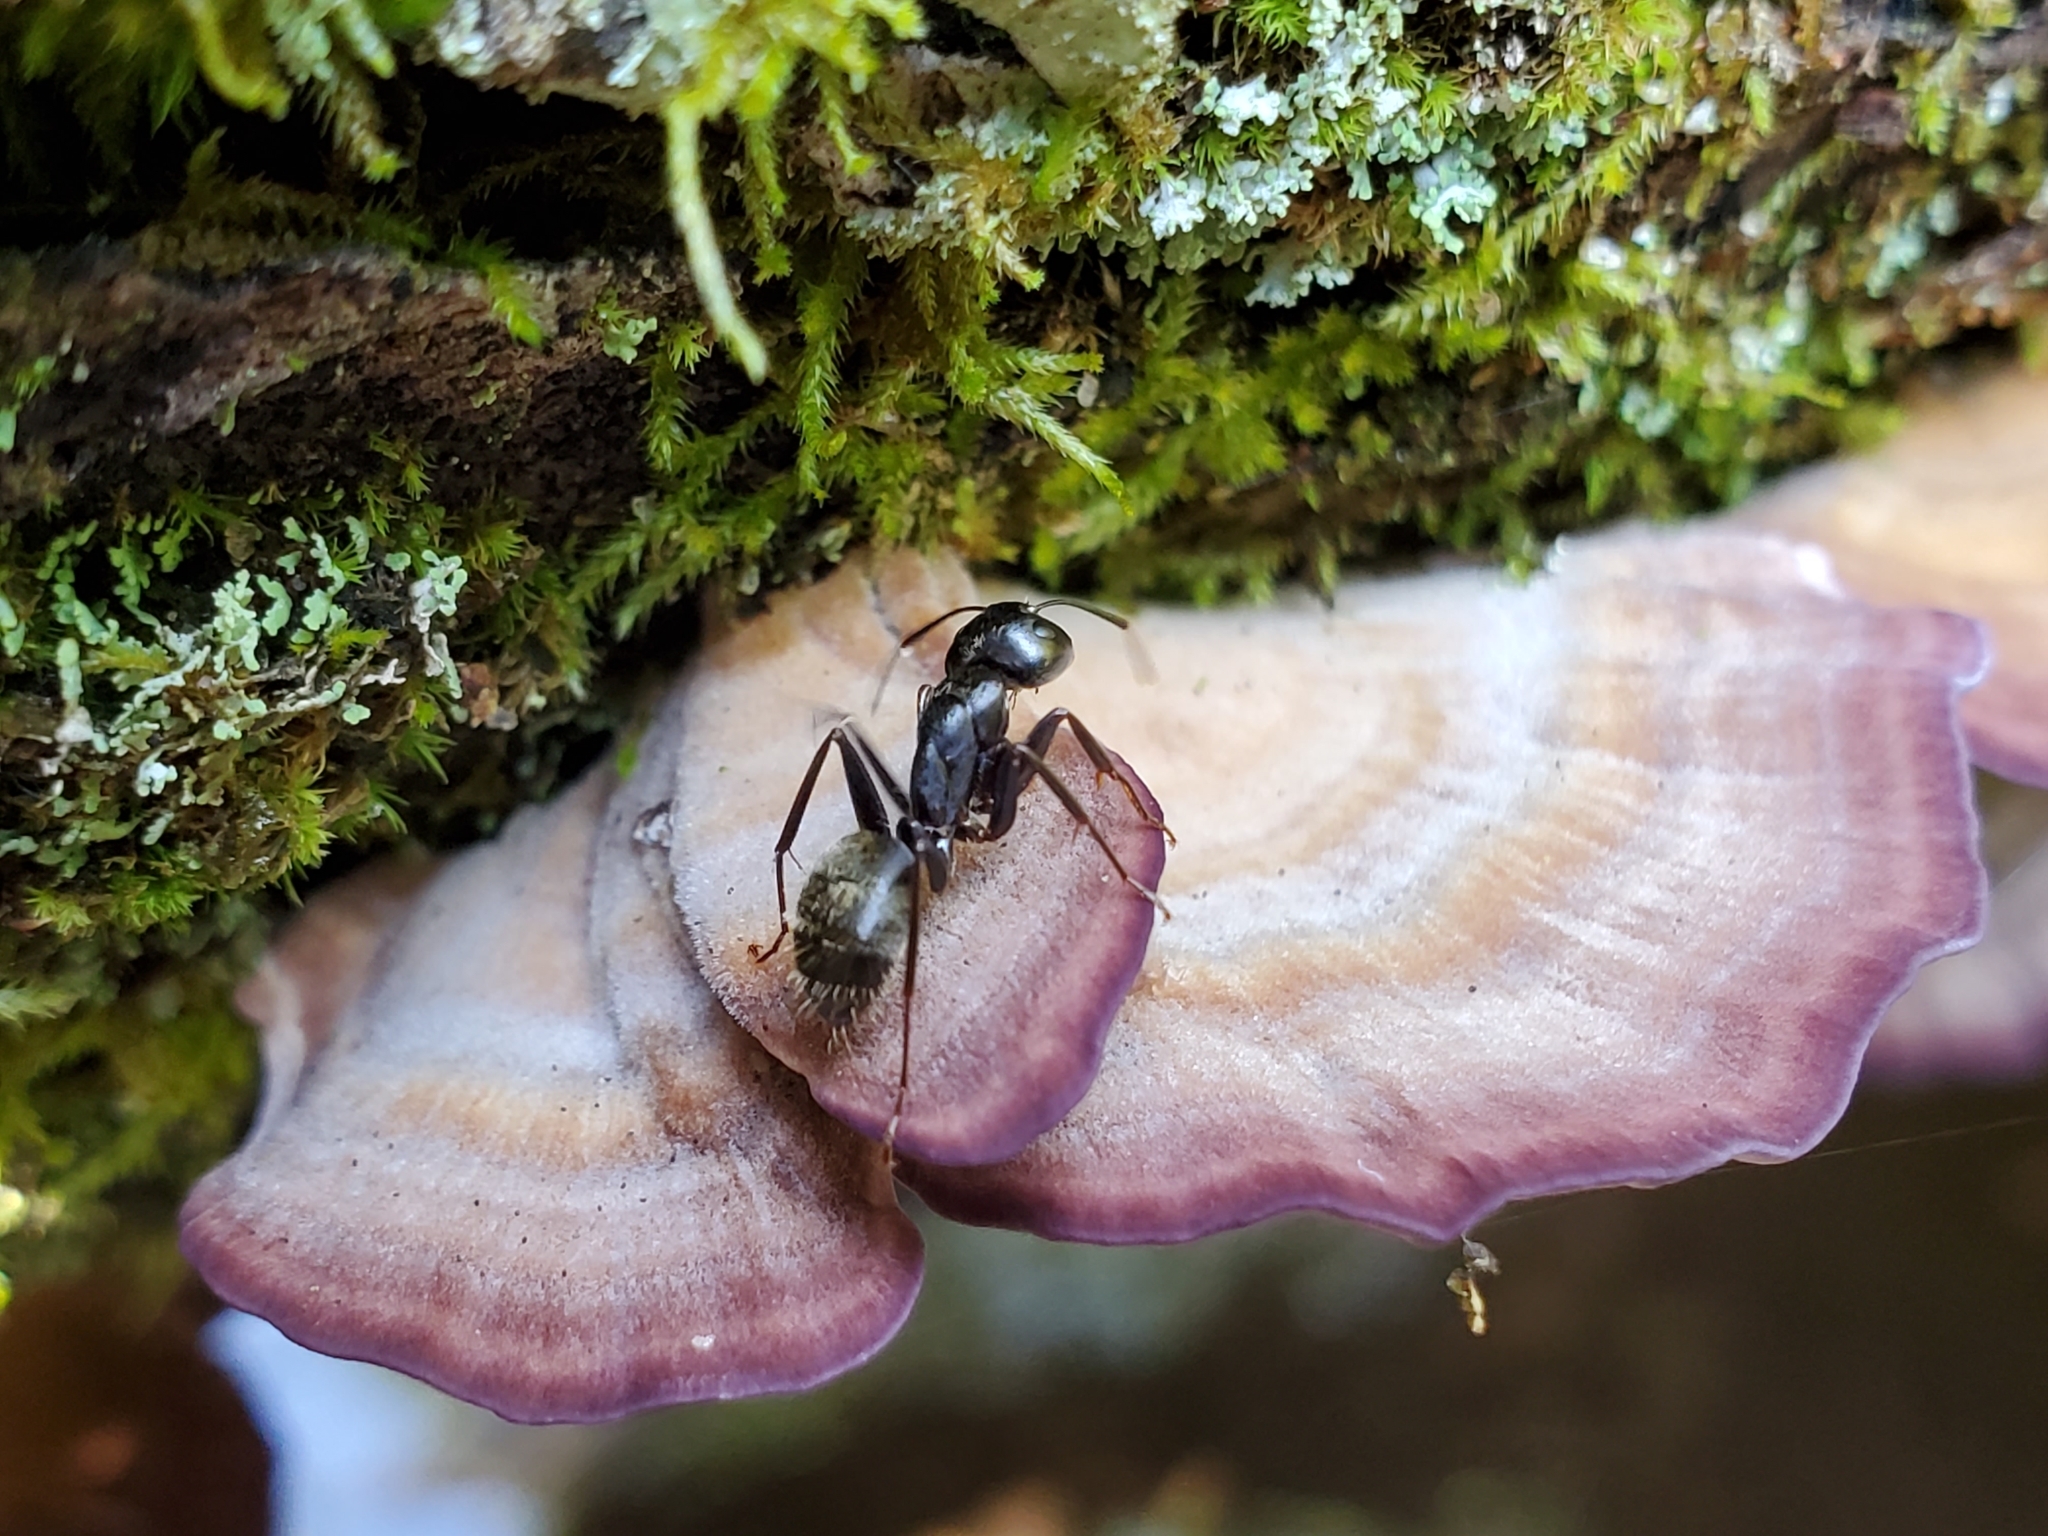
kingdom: Animalia
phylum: Arthropoda
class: Insecta
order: Hymenoptera
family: Formicidae
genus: Camponotus
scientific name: Camponotus pennsylvanicus
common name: Black carpenter ant
